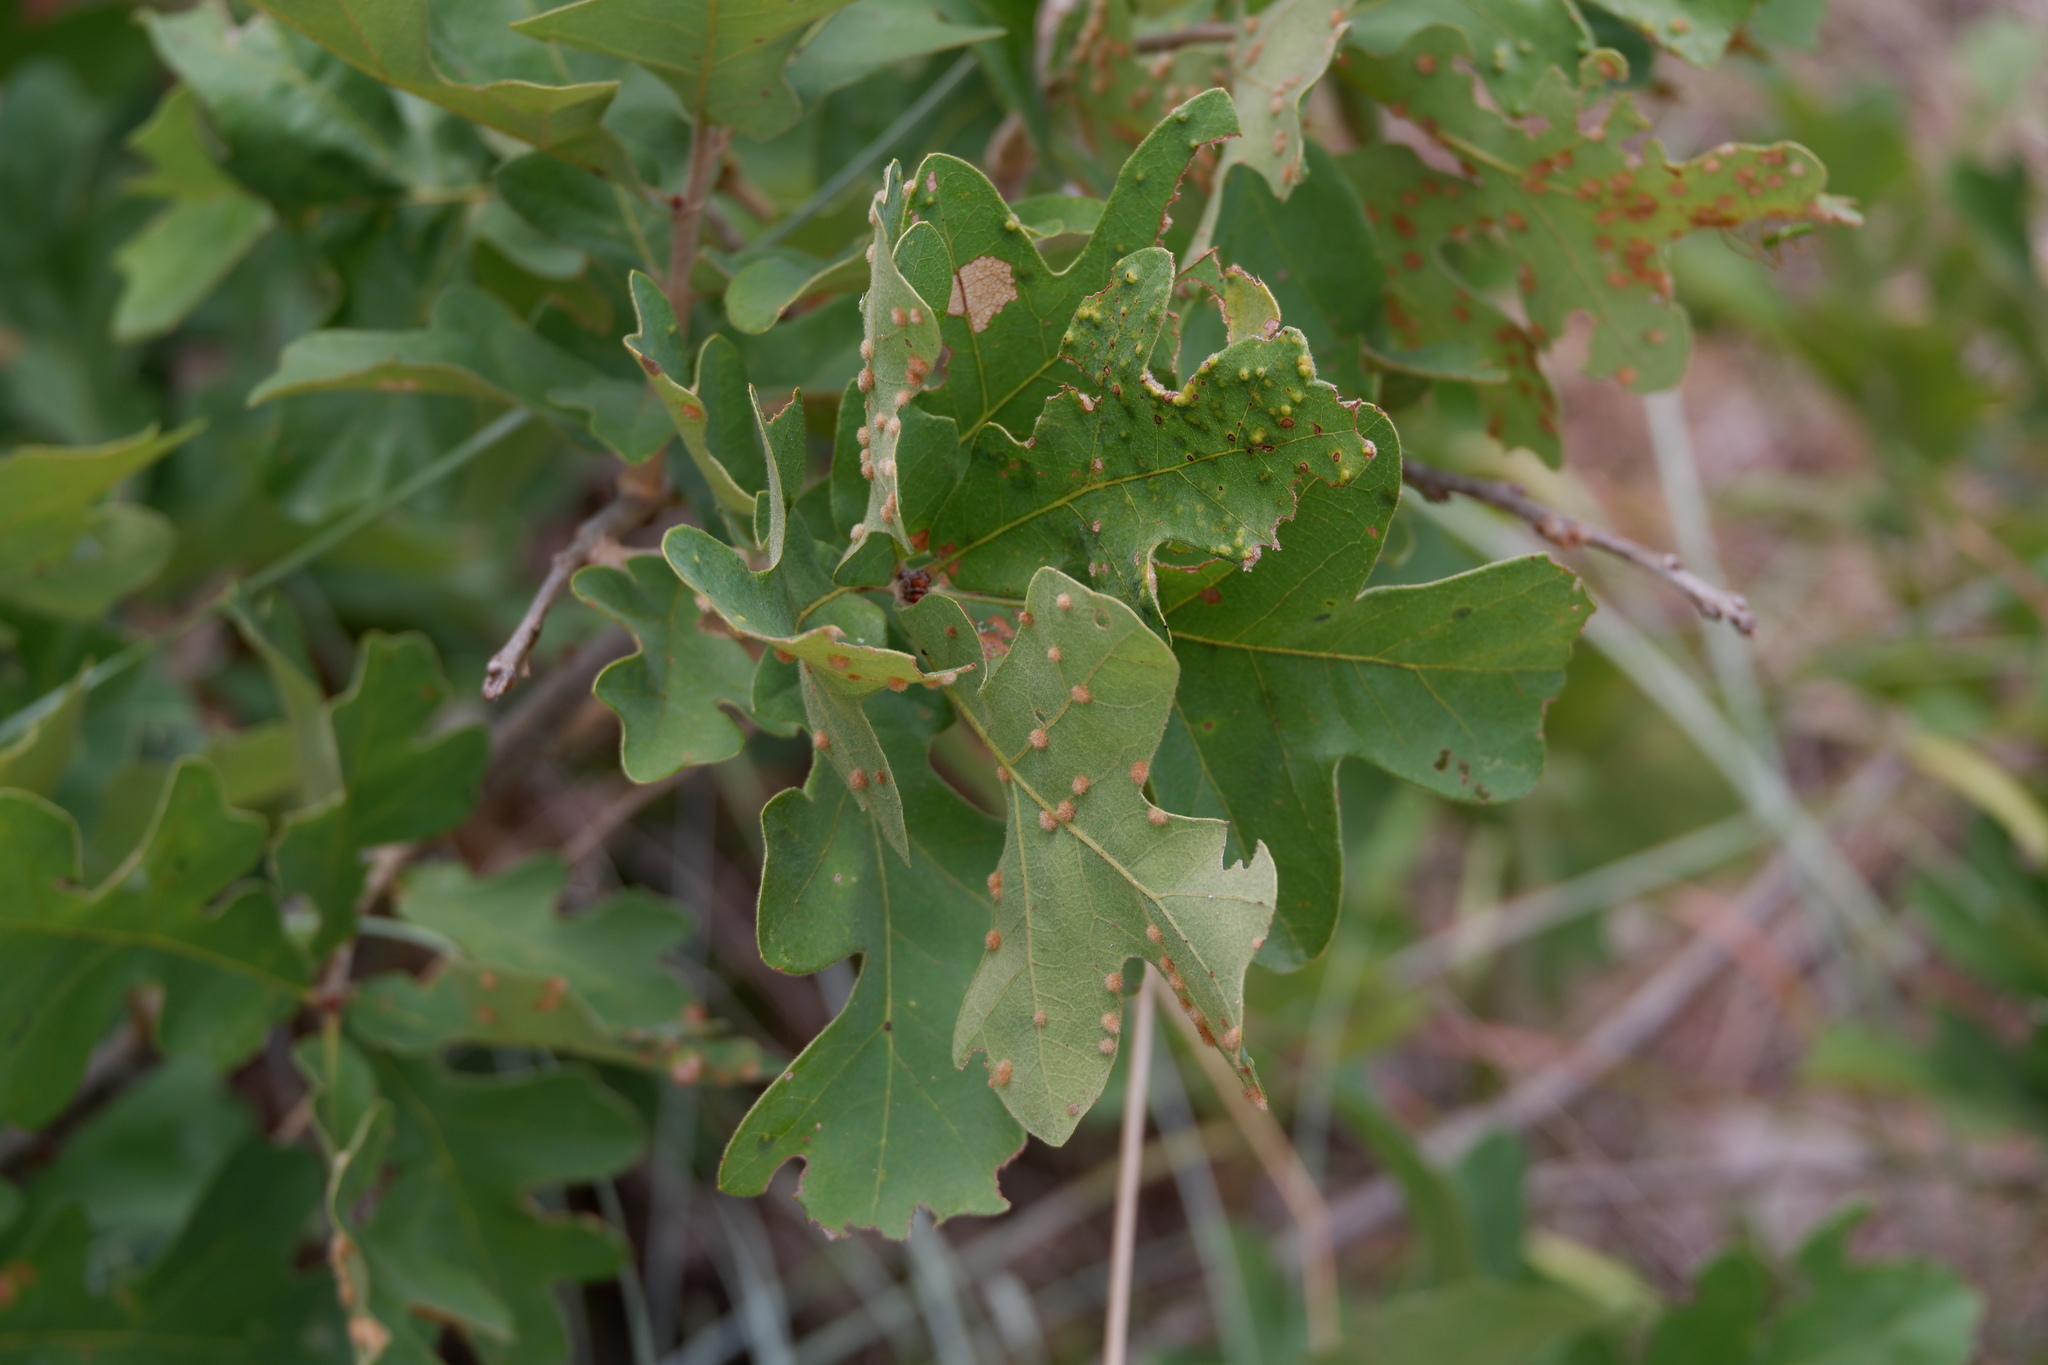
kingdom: Animalia
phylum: Arthropoda
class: Insecta
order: Hymenoptera
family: Cynipidae
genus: Neuroterus
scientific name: Neuroterus quercusverrucarum
